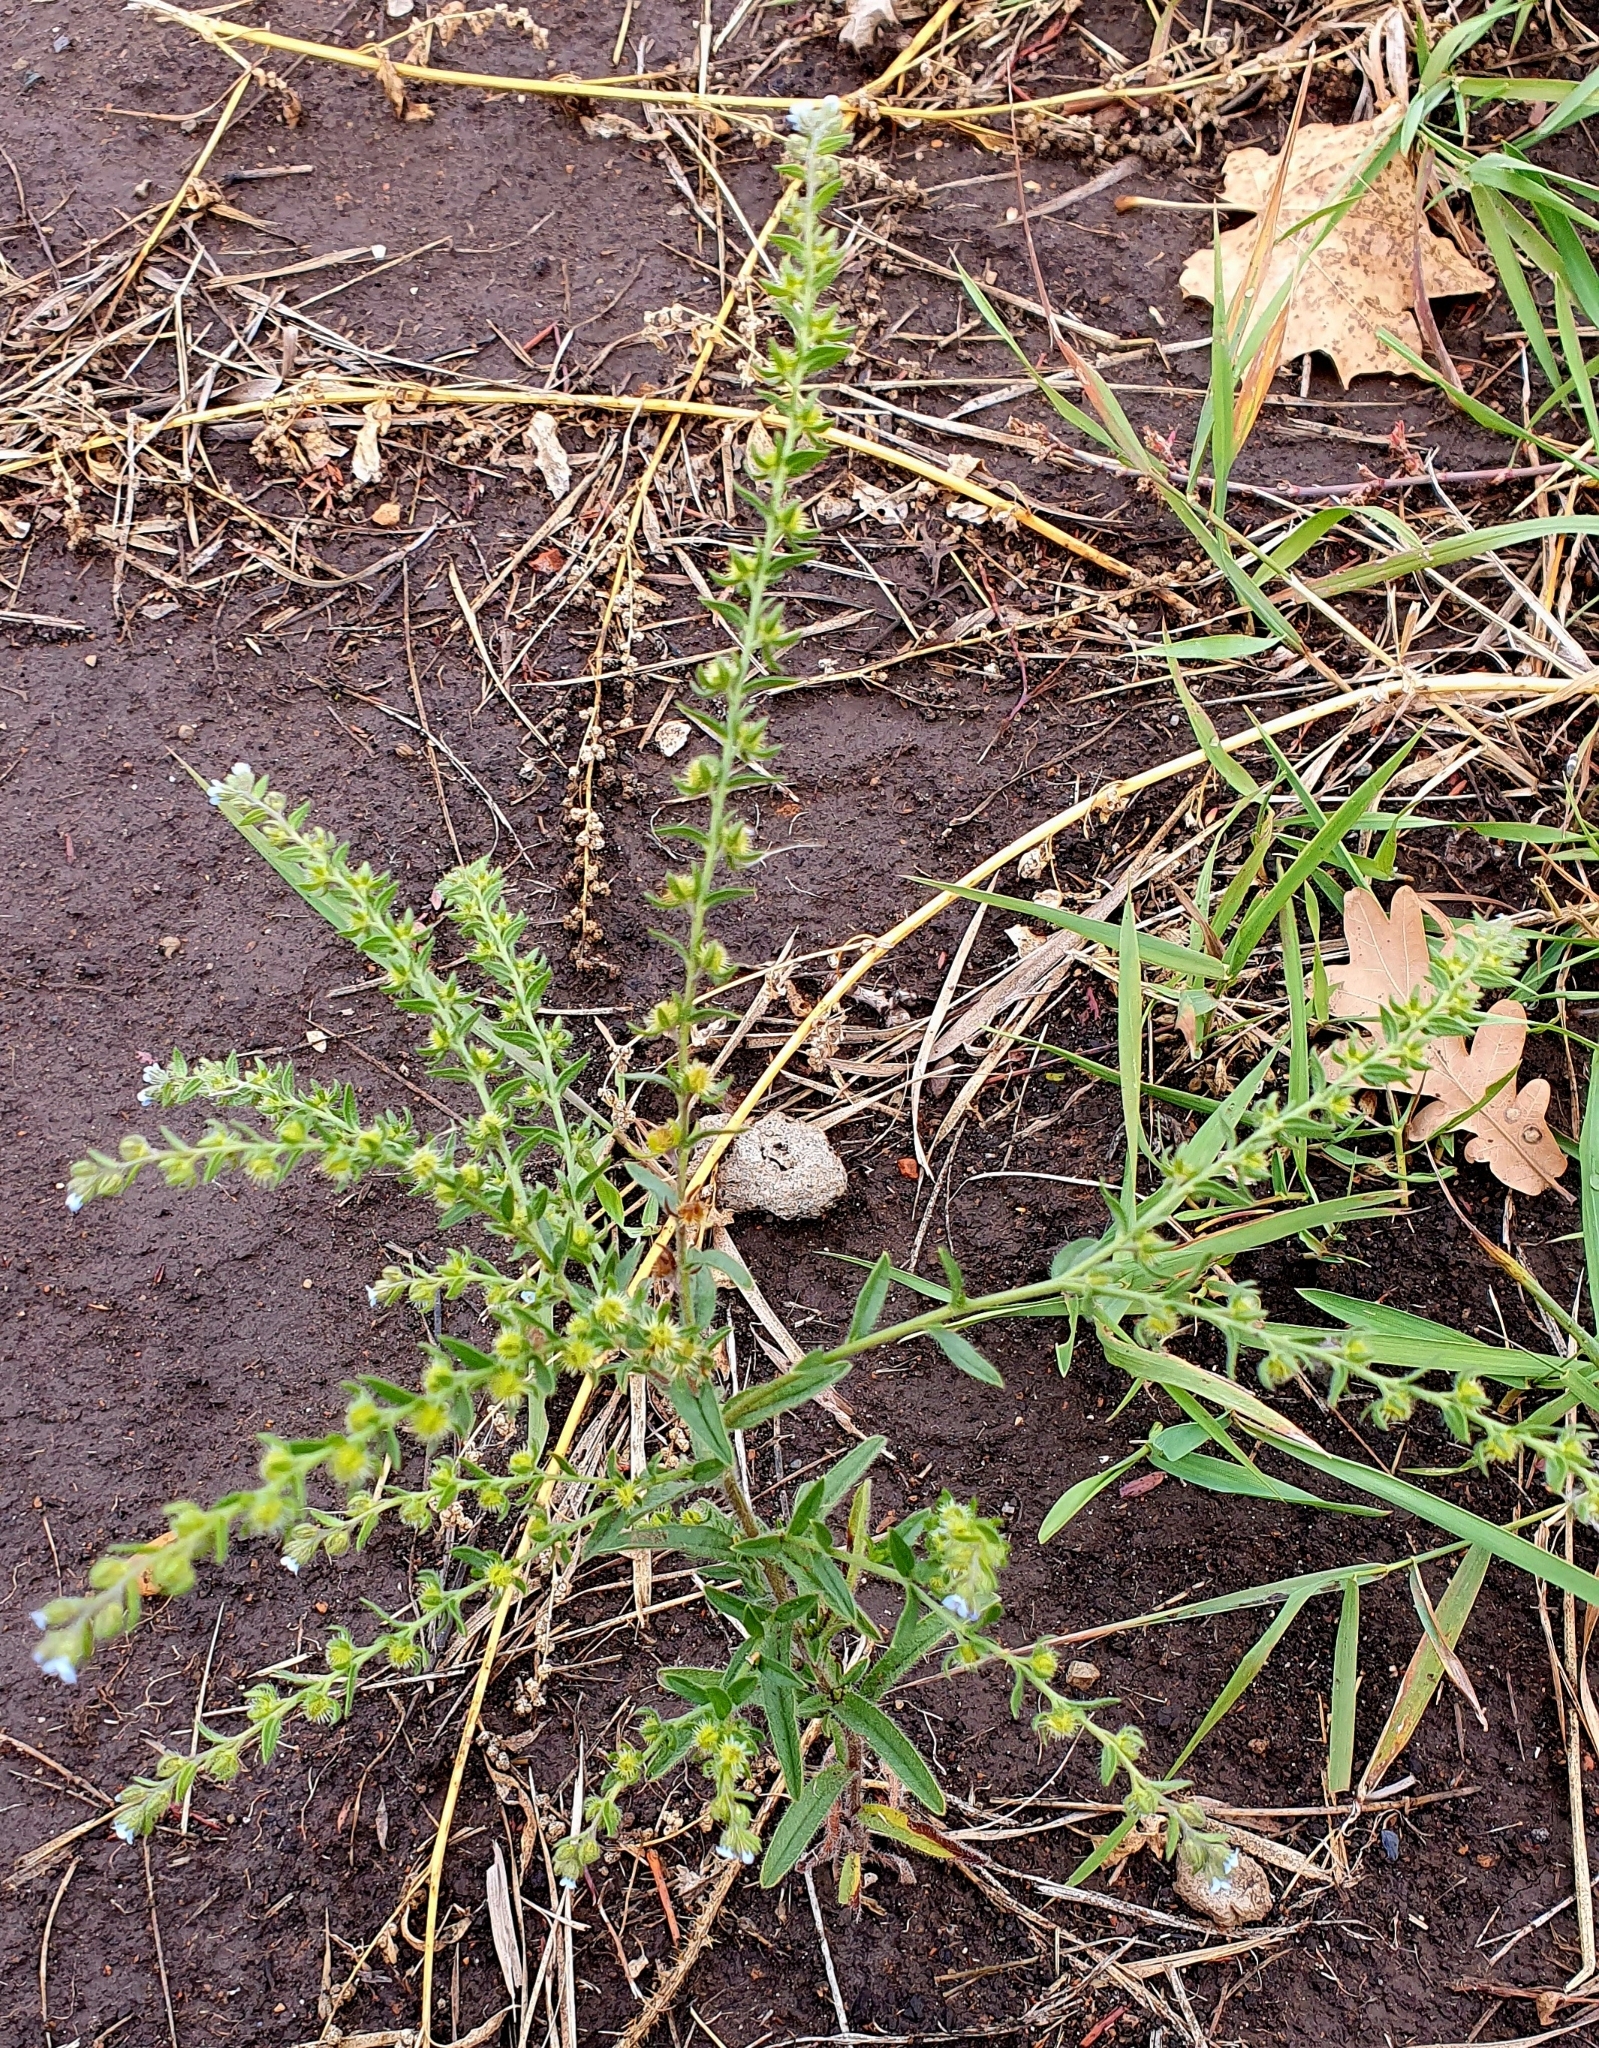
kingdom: Plantae
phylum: Tracheophyta
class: Magnoliopsida
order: Boraginales
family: Boraginaceae
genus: Lappula
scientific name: Lappula squarrosa
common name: European stickseed
